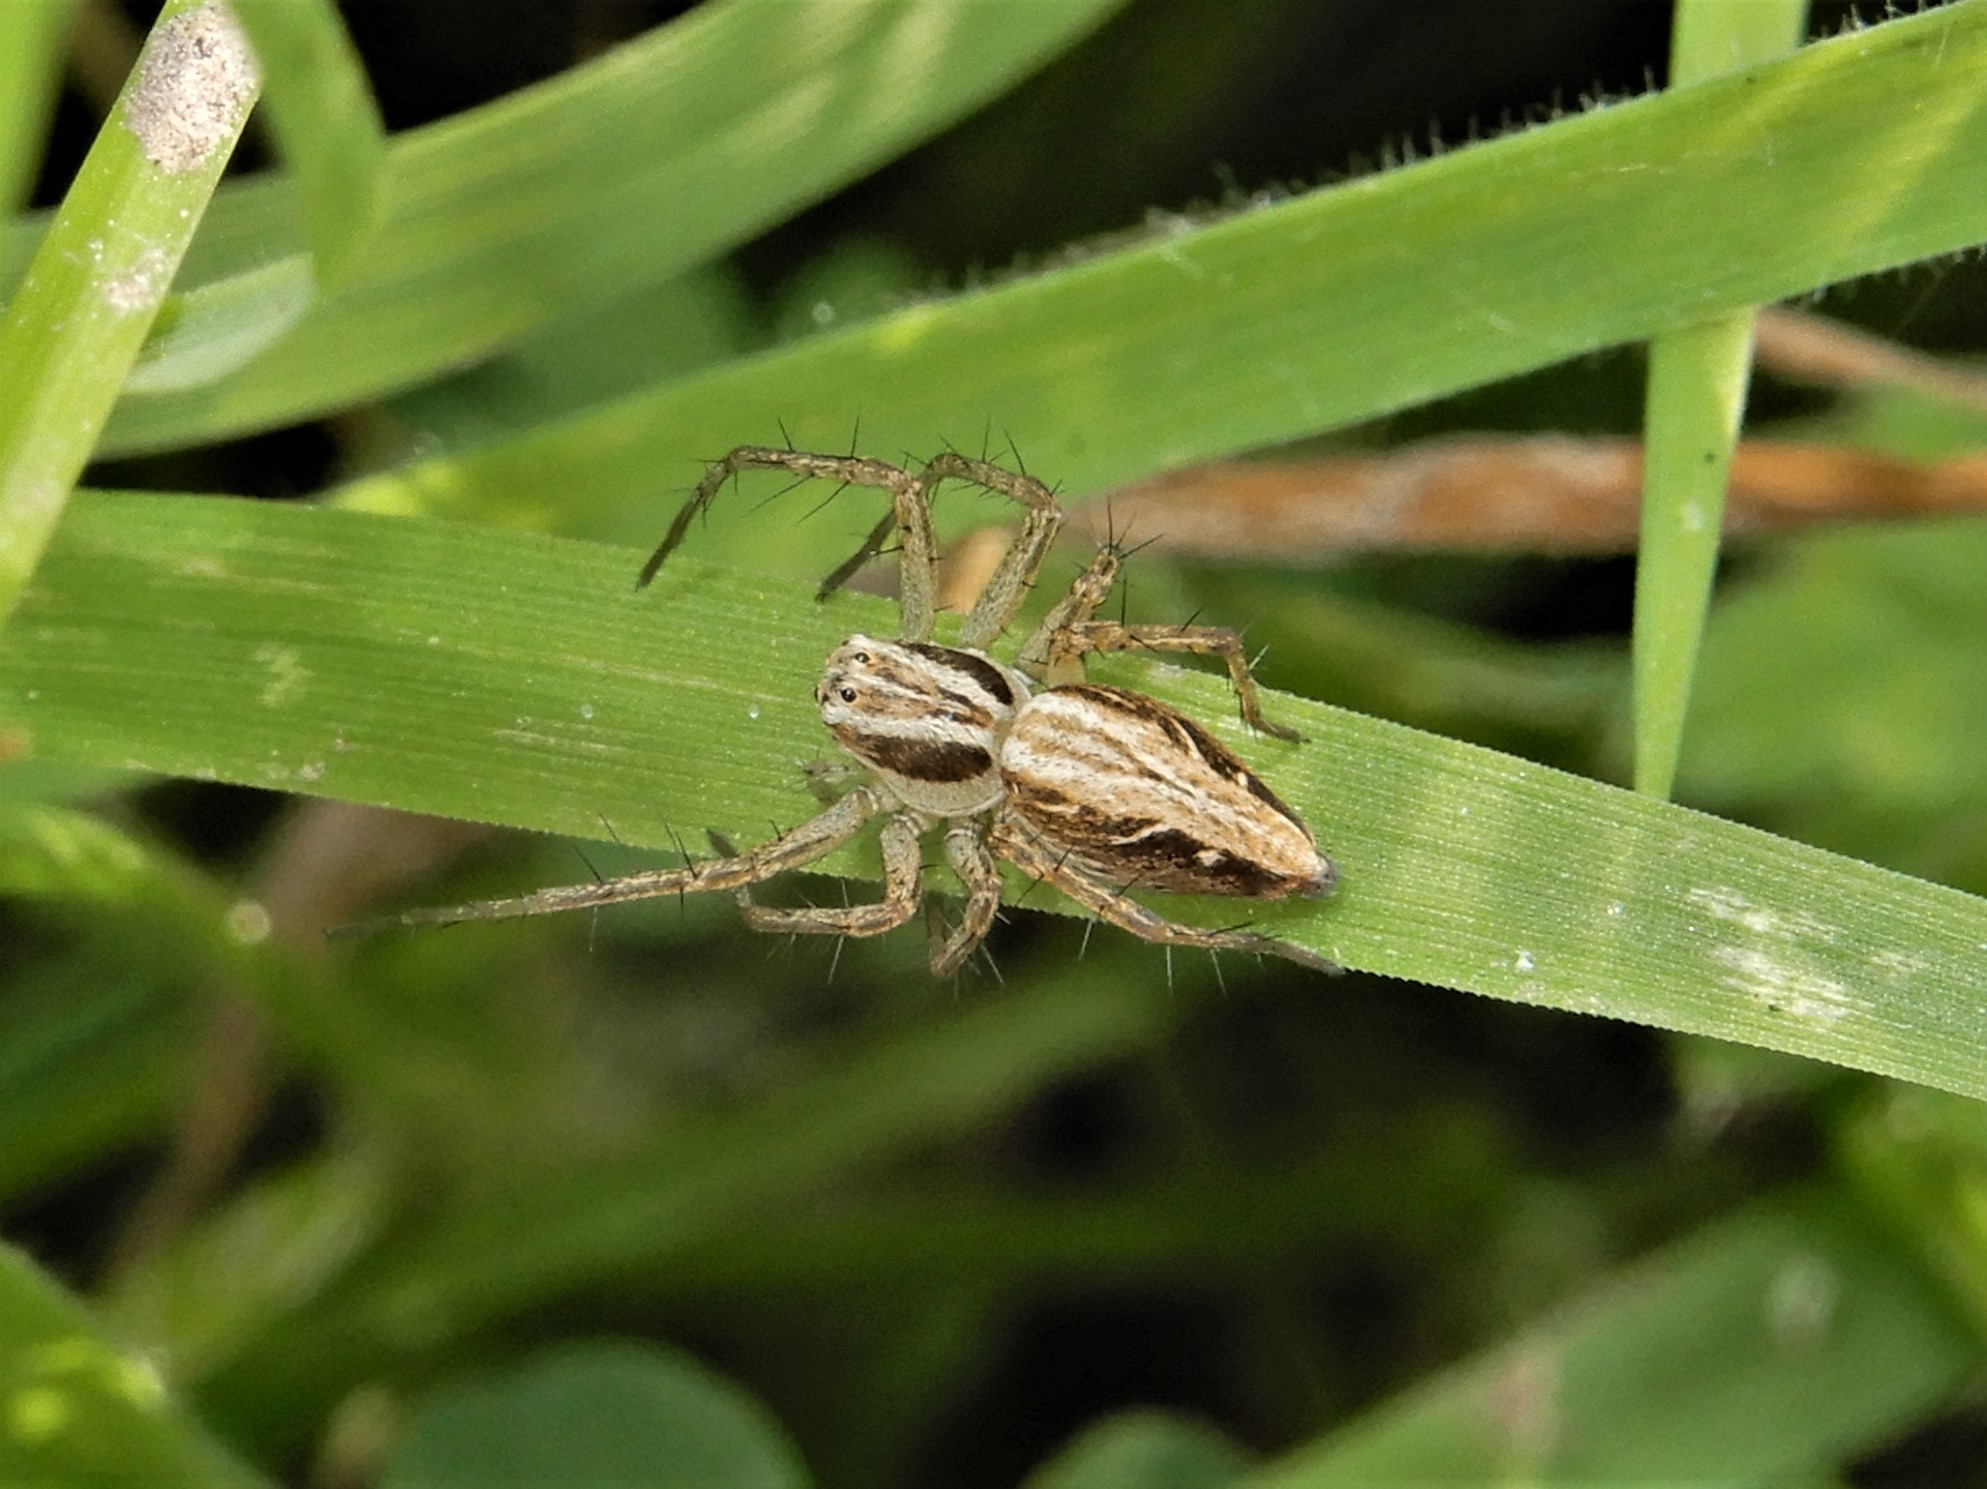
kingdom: Animalia
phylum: Arthropoda
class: Arachnida
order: Araneae
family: Oxyopidae
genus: Oxyopes
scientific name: Oxyopes gracilipes
